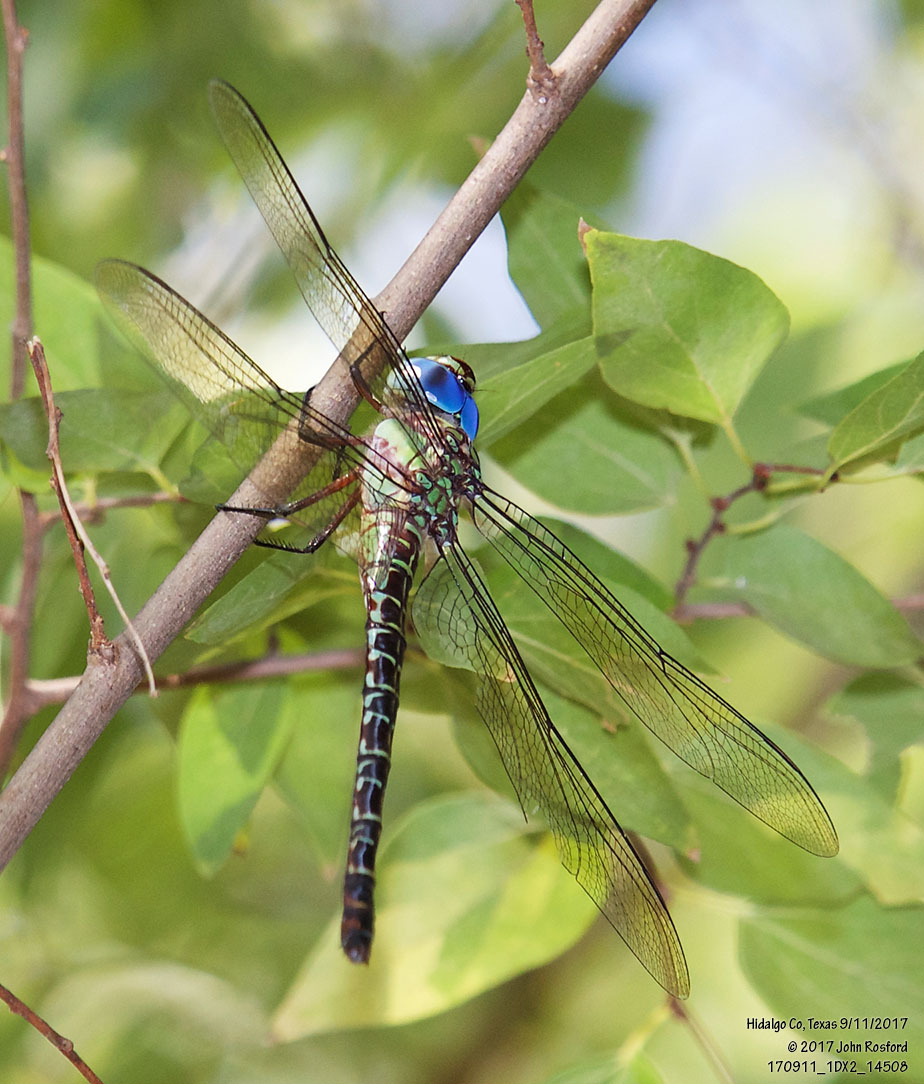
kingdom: Animalia
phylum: Arthropoda
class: Insecta
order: Odonata
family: Aeshnidae
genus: Coryphaeschna
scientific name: Coryphaeschna ingens
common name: Regal darner
